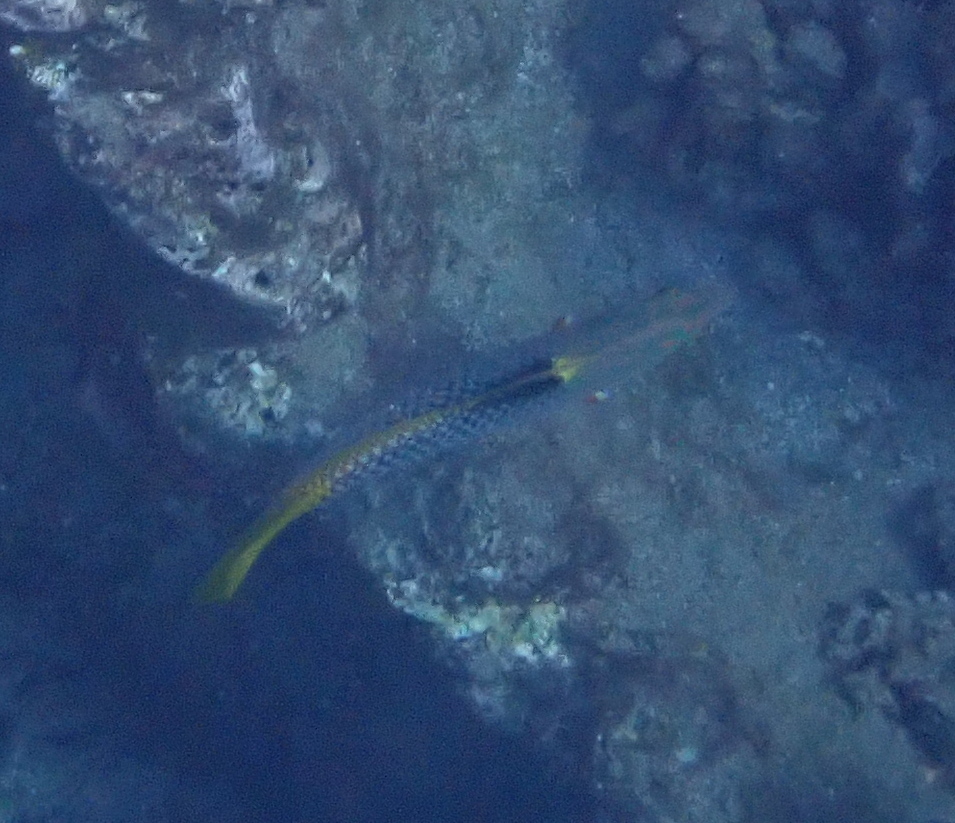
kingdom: Animalia
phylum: Chordata
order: Perciformes
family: Labridae
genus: Halichoeres
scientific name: Halichoeres hortulanus
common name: Checkerboard wrasse
